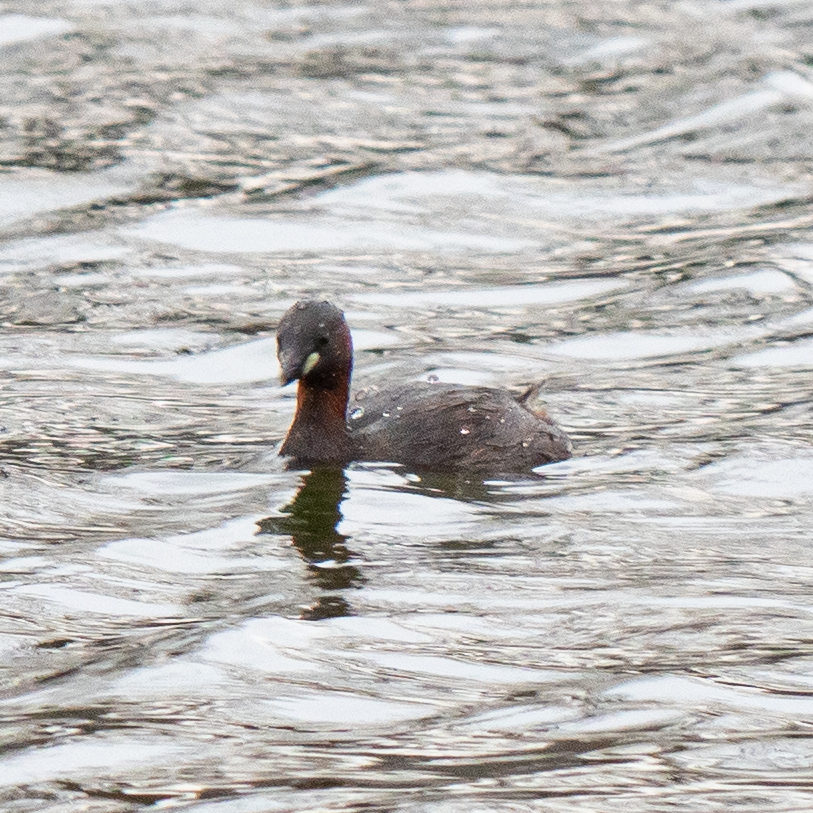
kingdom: Animalia
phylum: Chordata
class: Aves
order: Podicipediformes
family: Podicipedidae
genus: Tachybaptus
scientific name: Tachybaptus ruficollis
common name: Little grebe
